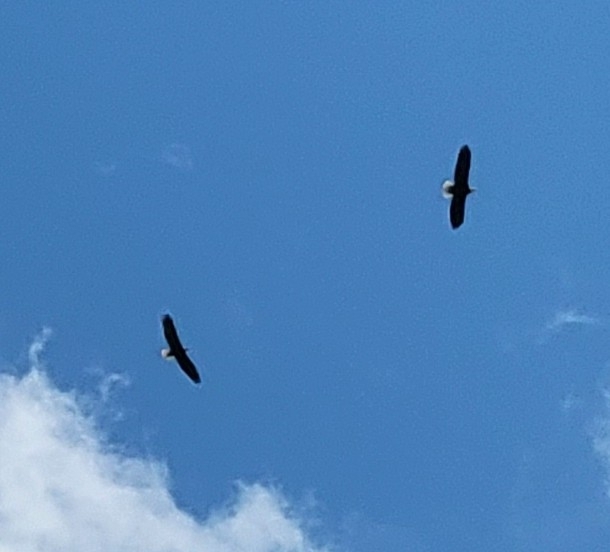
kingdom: Animalia
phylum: Chordata
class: Aves
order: Accipitriformes
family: Accipitridae
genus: Haliaeetus
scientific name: Haliaeetus leucocephalus
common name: Bald eagle
